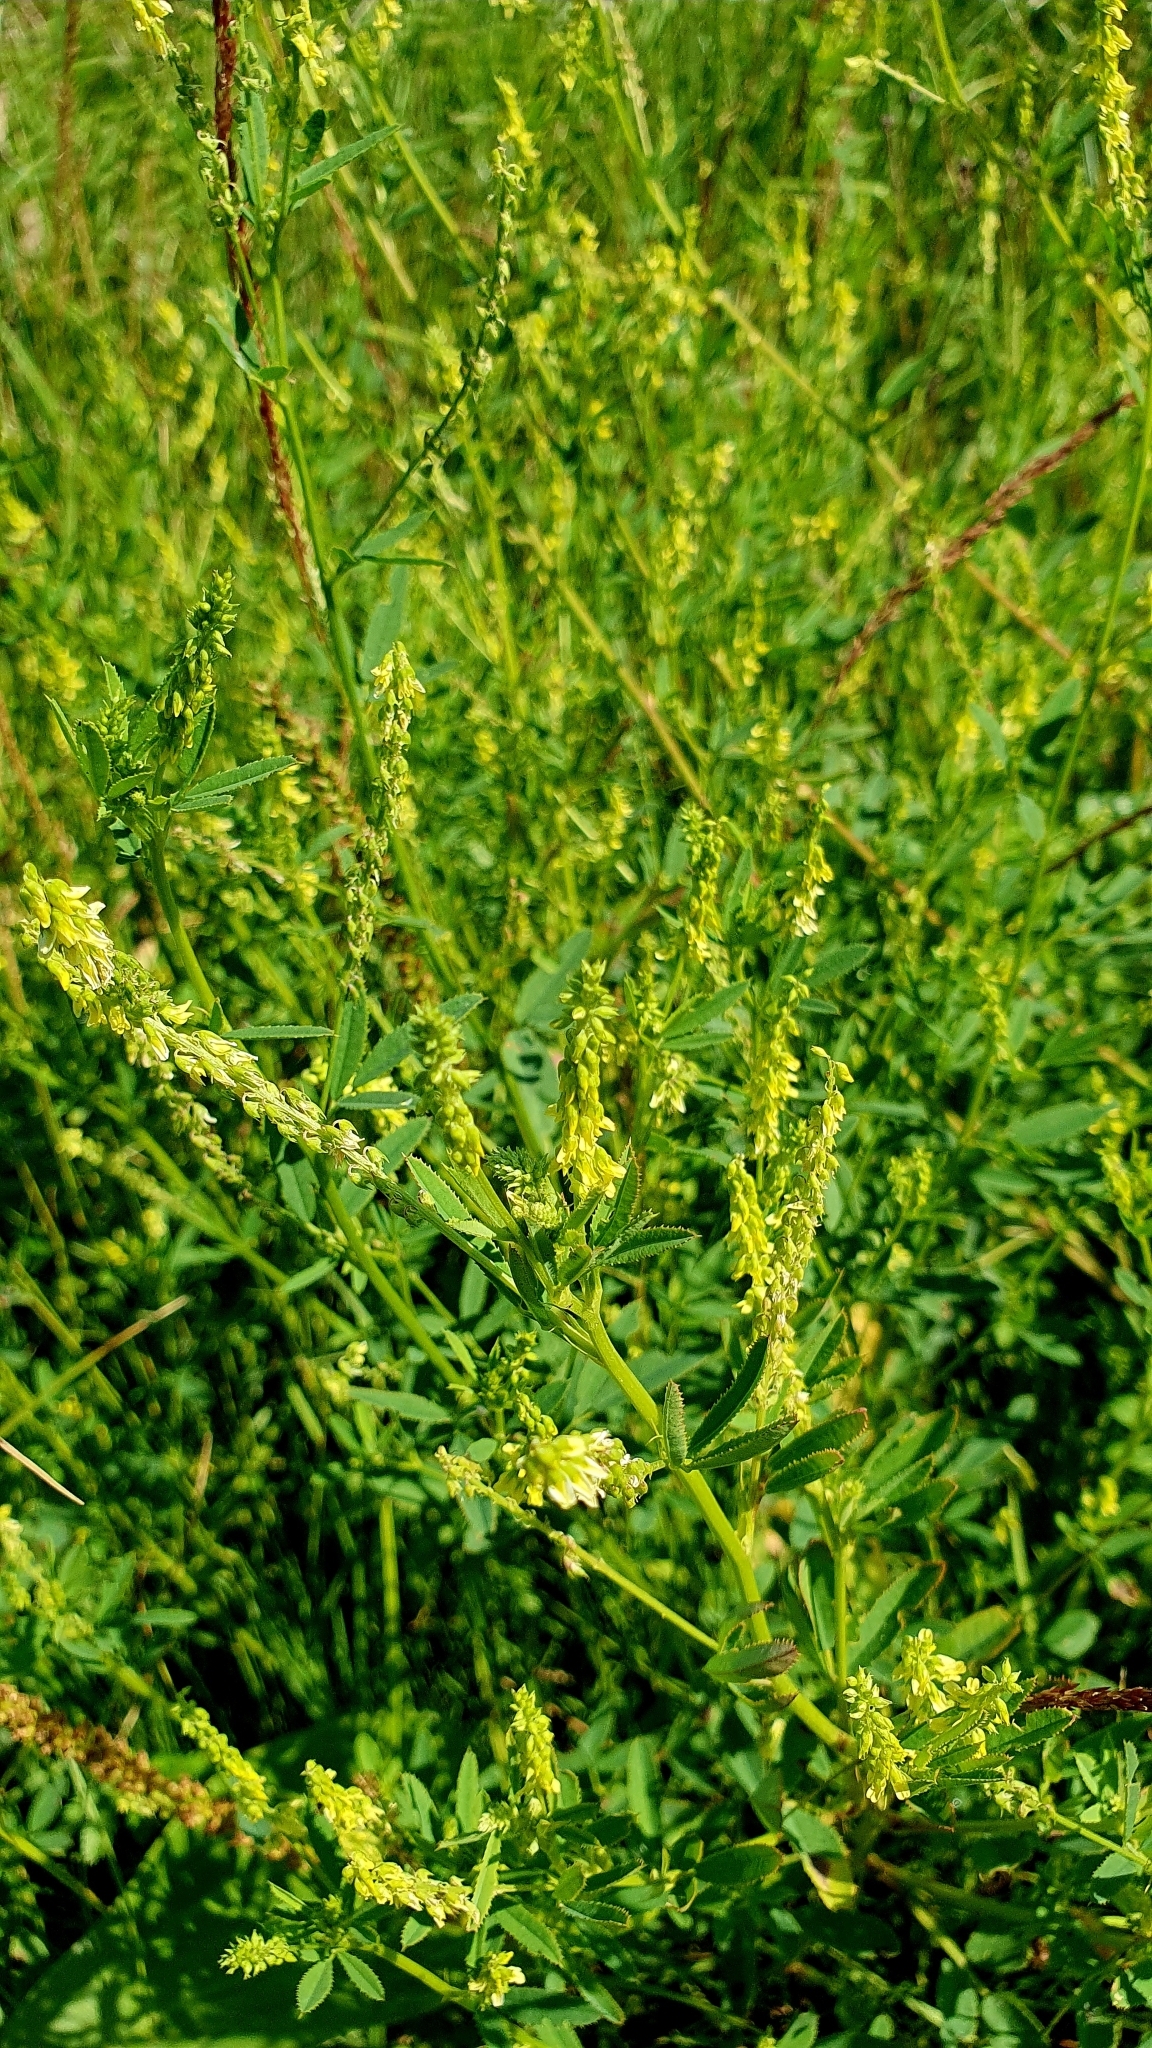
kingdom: Plantae
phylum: Tracheophyta
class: Magnoliopsida
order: Fabales
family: Fabaceae
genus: Melilotus
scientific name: Melilotus officinalis
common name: Sweetclover
